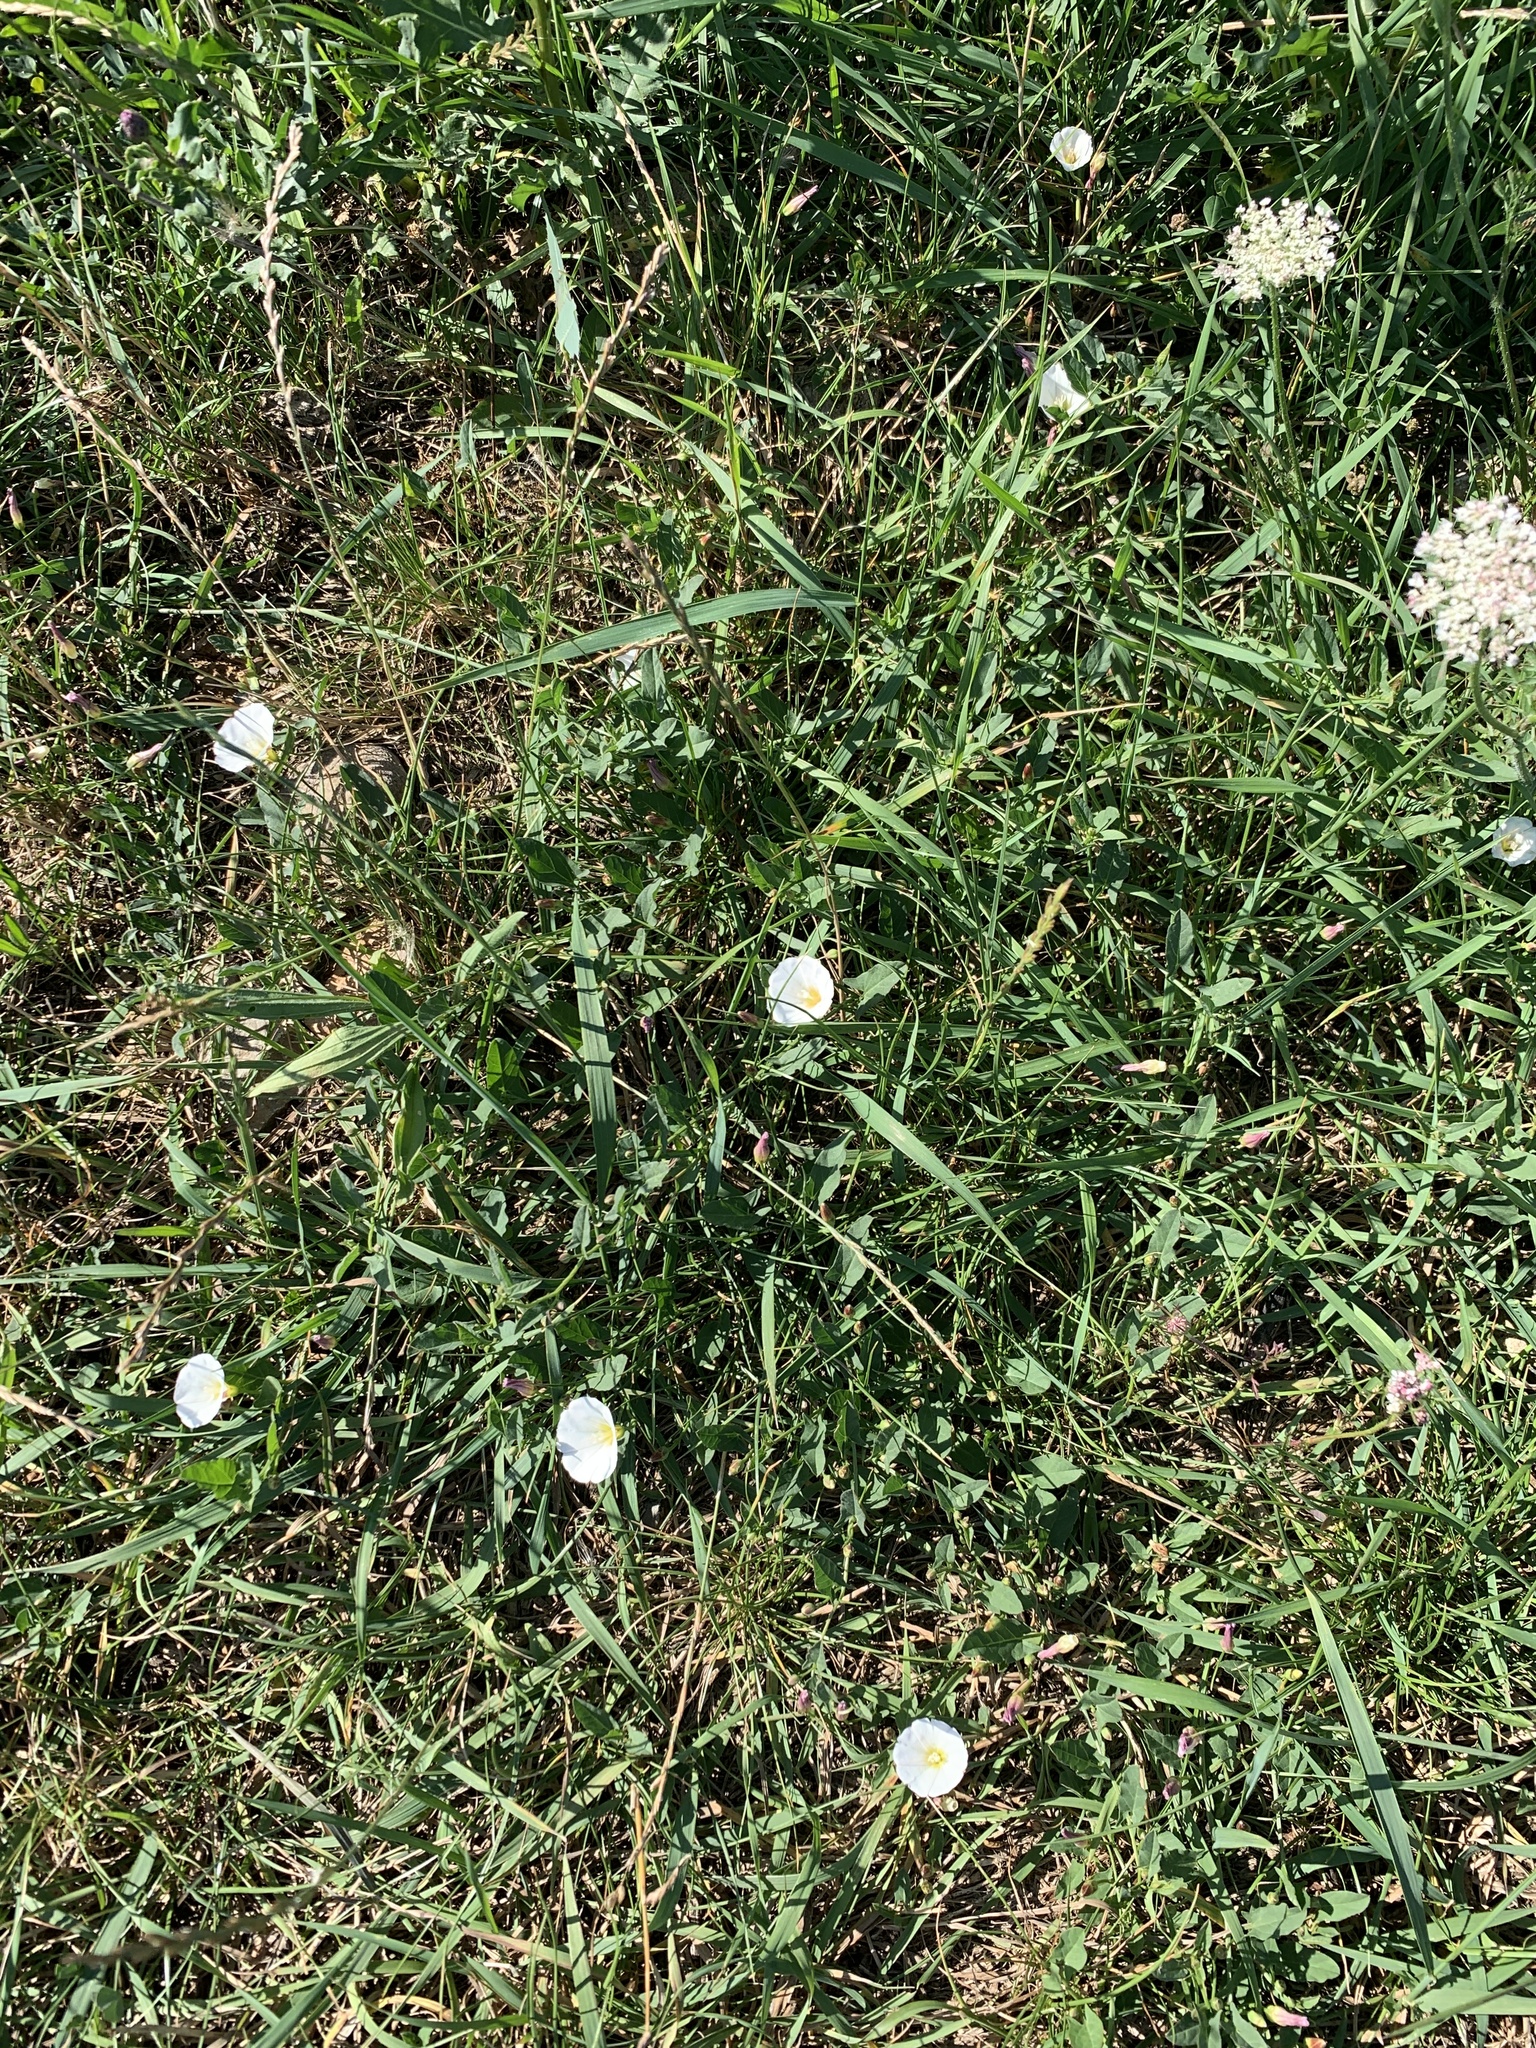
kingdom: Plantae
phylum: Tracheophyta
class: Magnoliopsida
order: Solanales
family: Convolvulaceae
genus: Convolvulus
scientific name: Convolvulus arvensis
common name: Field bindweed
